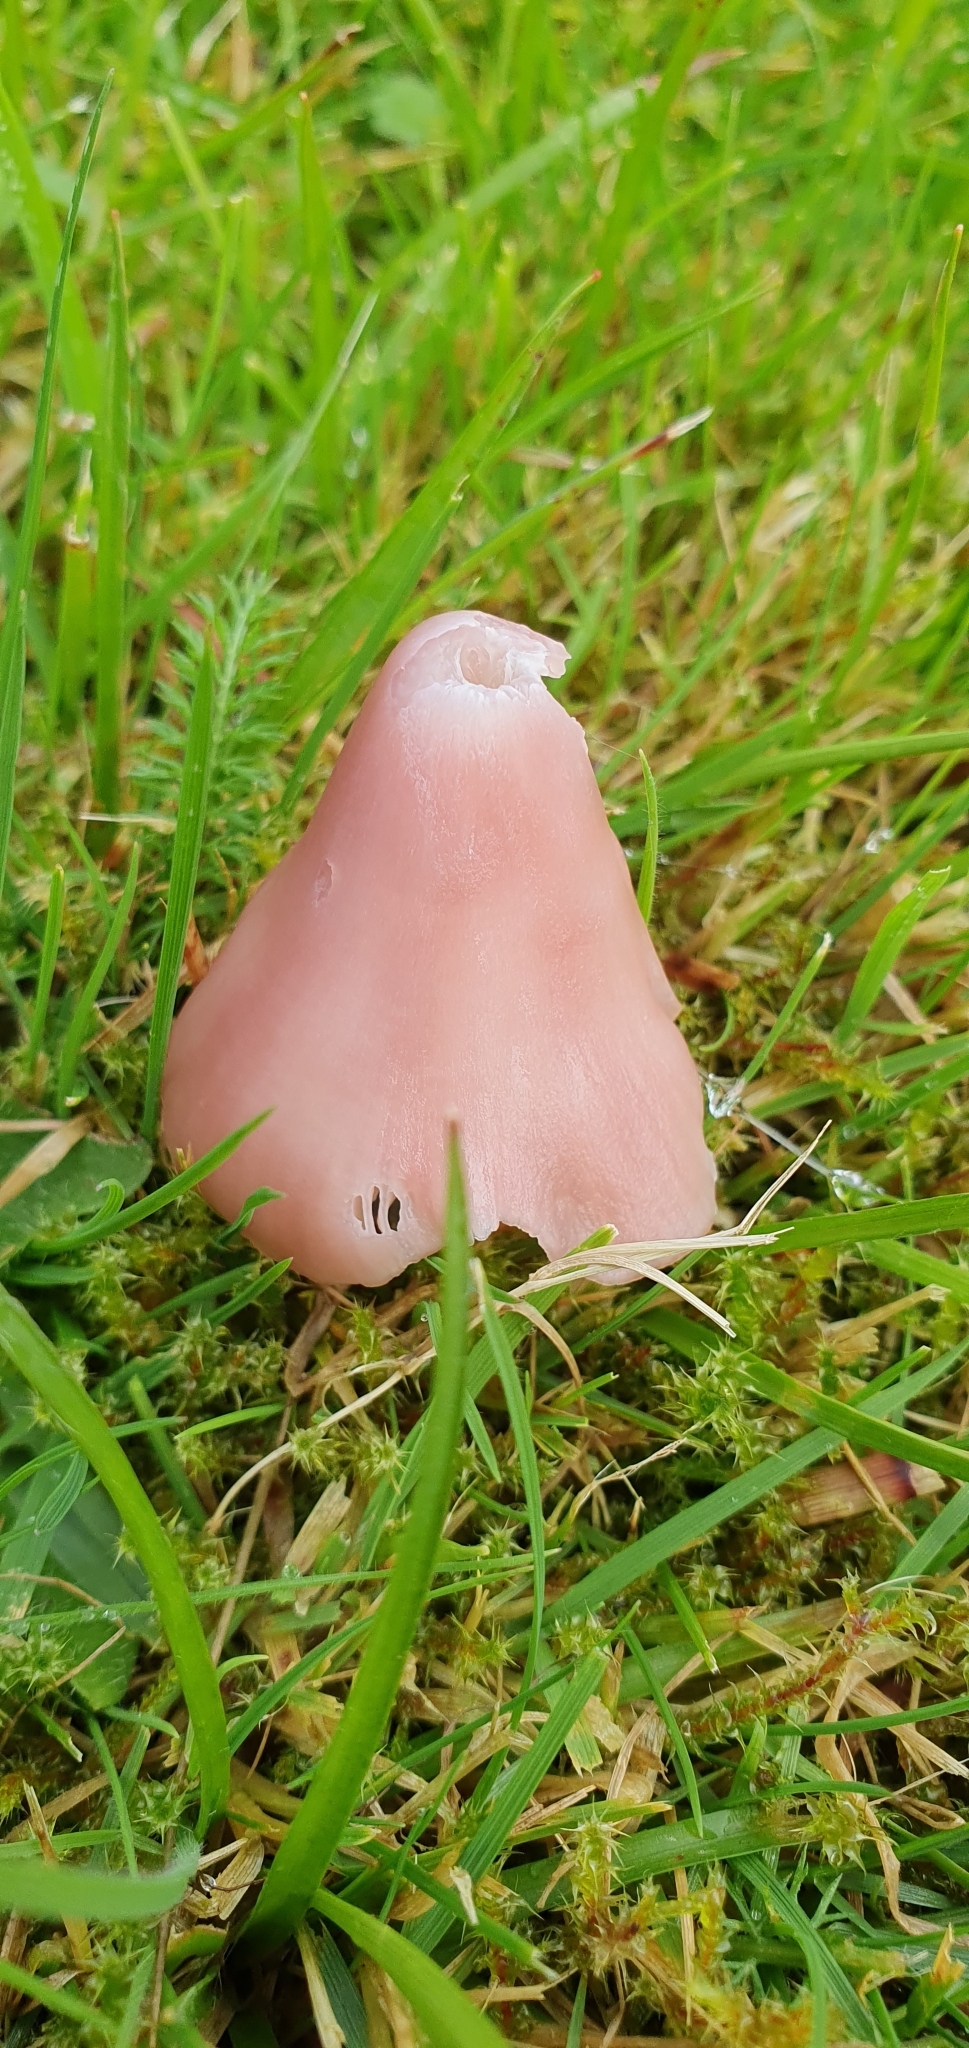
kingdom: Fungi
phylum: Basidiomycota
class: Agaricomycetes
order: Agaricales
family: Hygrophoraceae
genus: Porpolomopsis
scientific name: Porpolomopsis calyptriformis
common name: Pink waxcap
